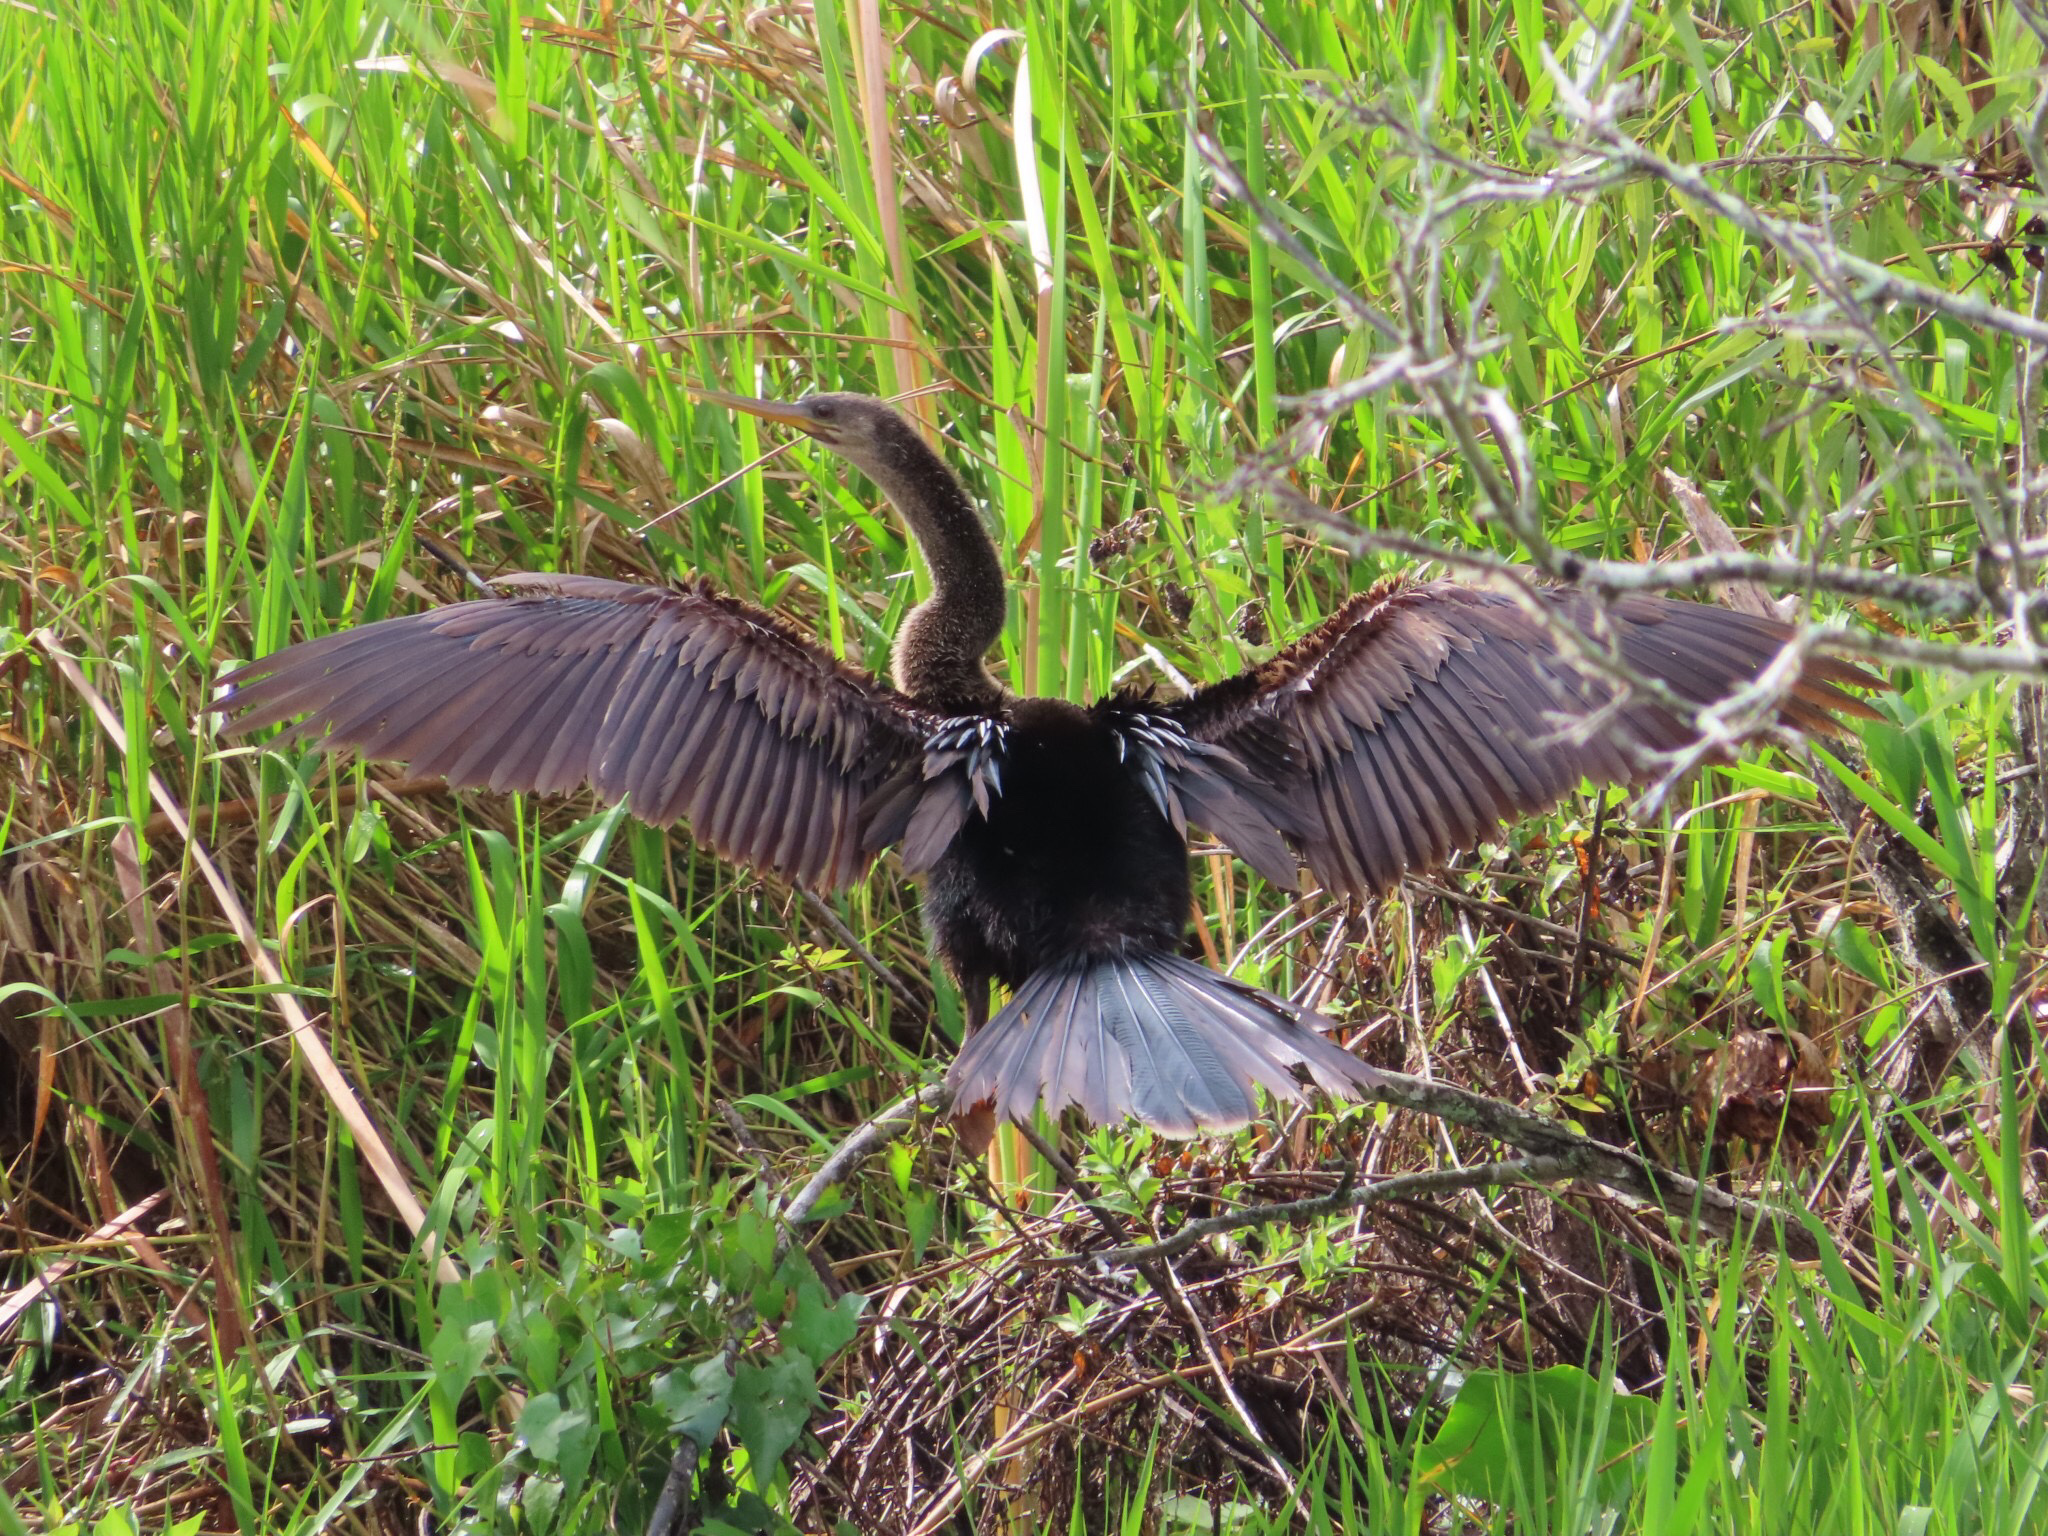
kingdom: Animalia
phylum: Chordata
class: Aves
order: Suliformes
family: Anhingidae
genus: Anhinga
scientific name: Anhinga anhinga
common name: Anhinga
